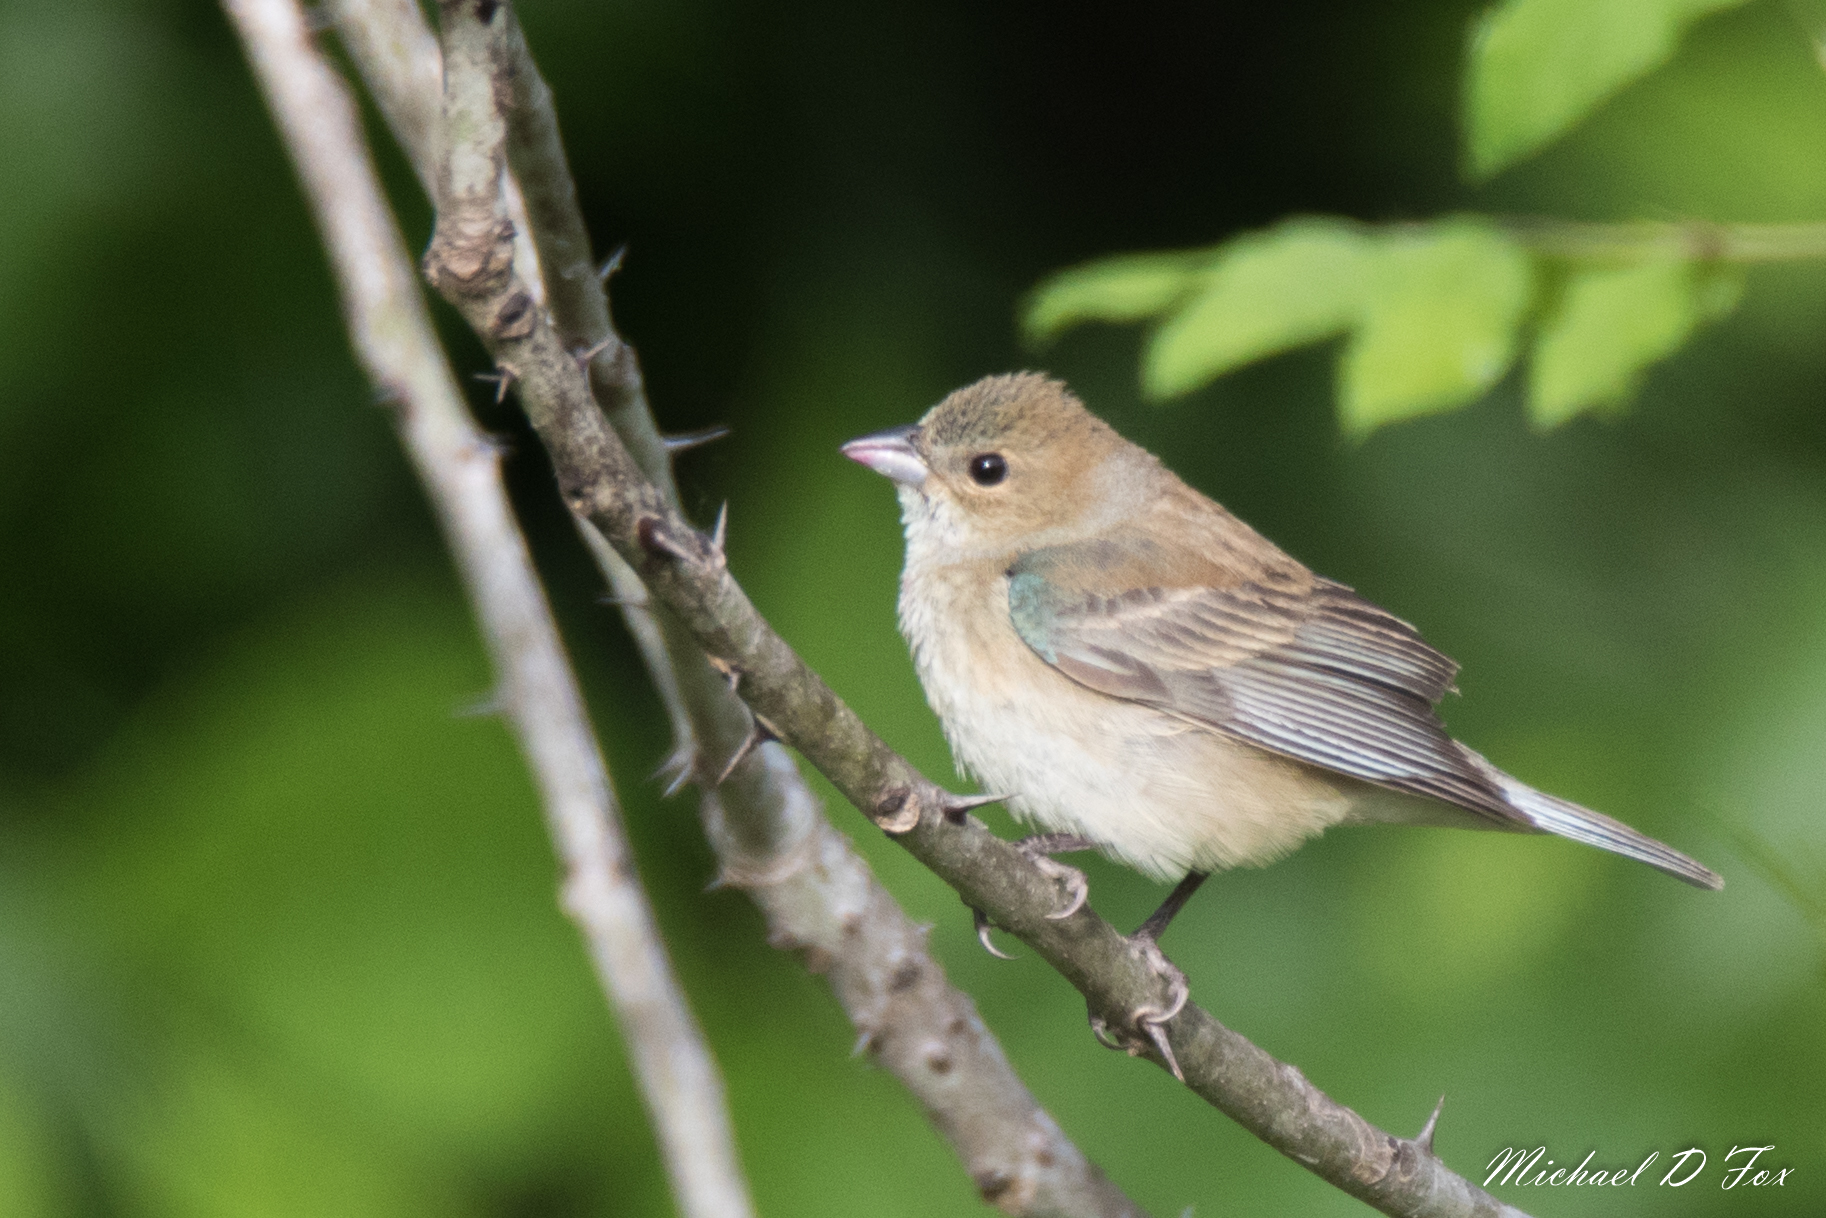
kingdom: Animalia
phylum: Chordata
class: Aves
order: Passeriformes
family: Cardinalidae
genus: Passerina
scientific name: Passerina cyanea
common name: Indigo bunting
